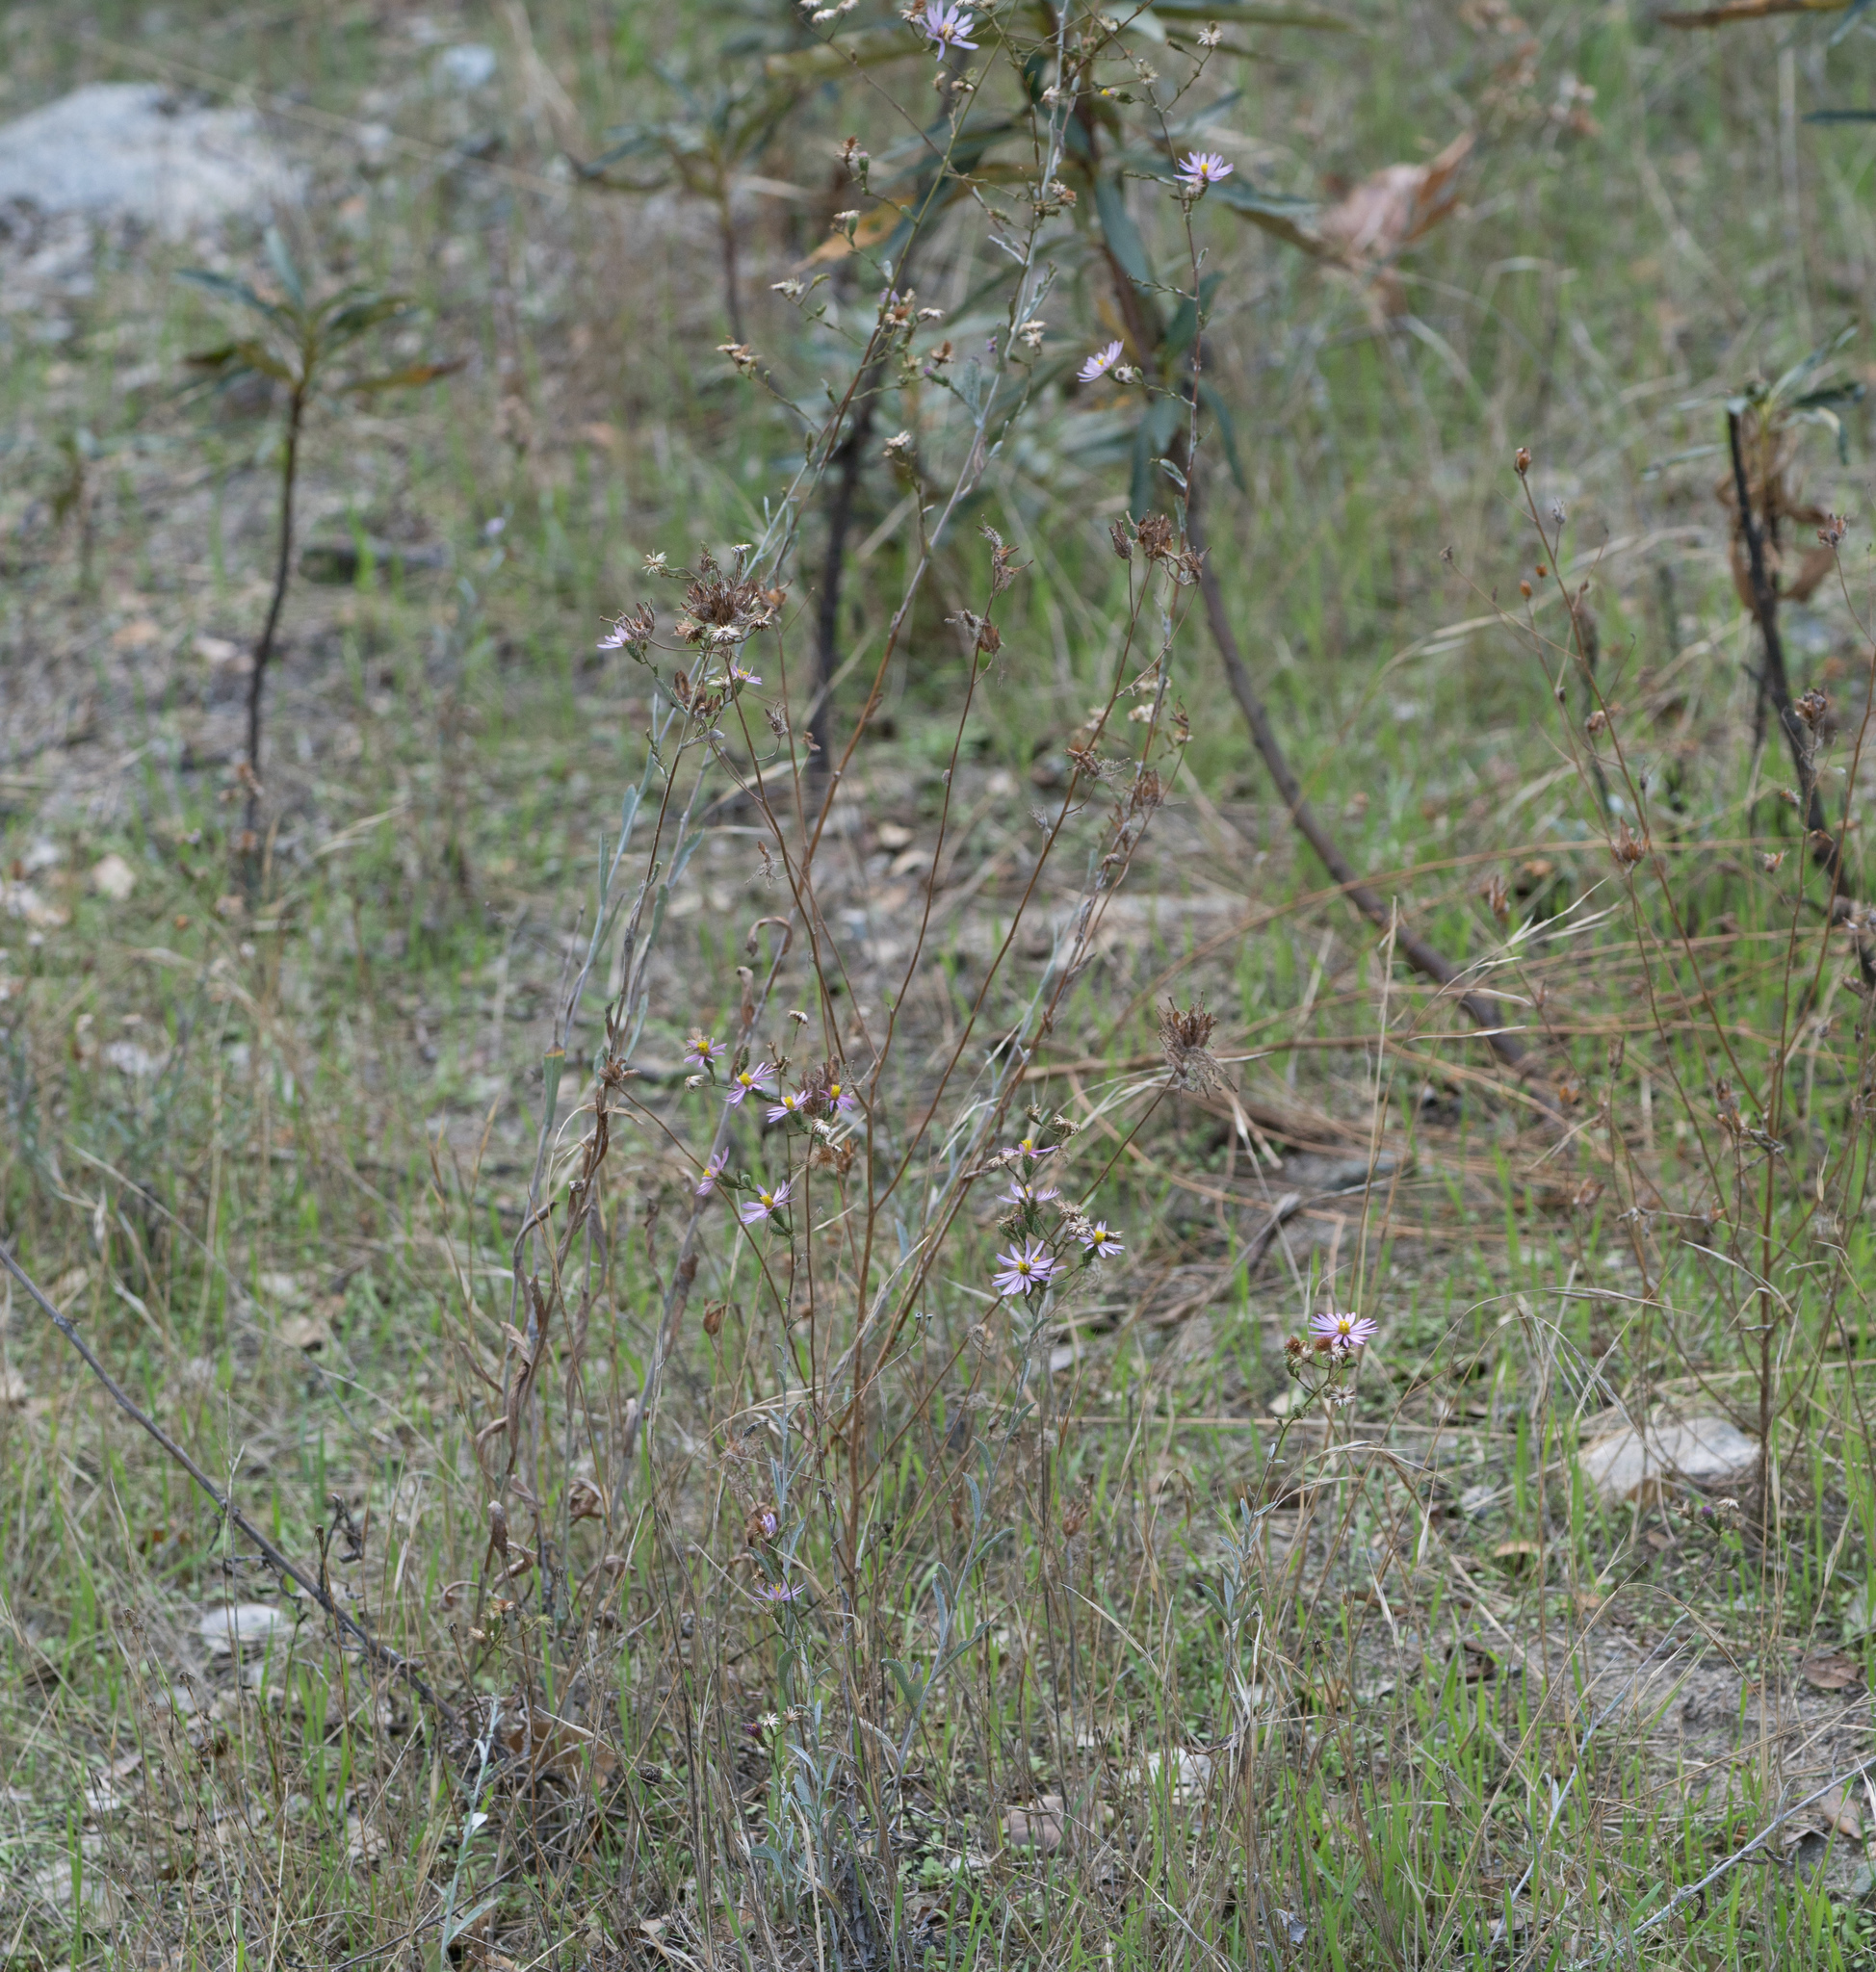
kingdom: Plantae
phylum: Tracheophyta
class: Magnoliopsida
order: Asterales
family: Asteraceae
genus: Corethrogyne
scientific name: Corethrogyne filaginifolia
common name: Sand-aster
